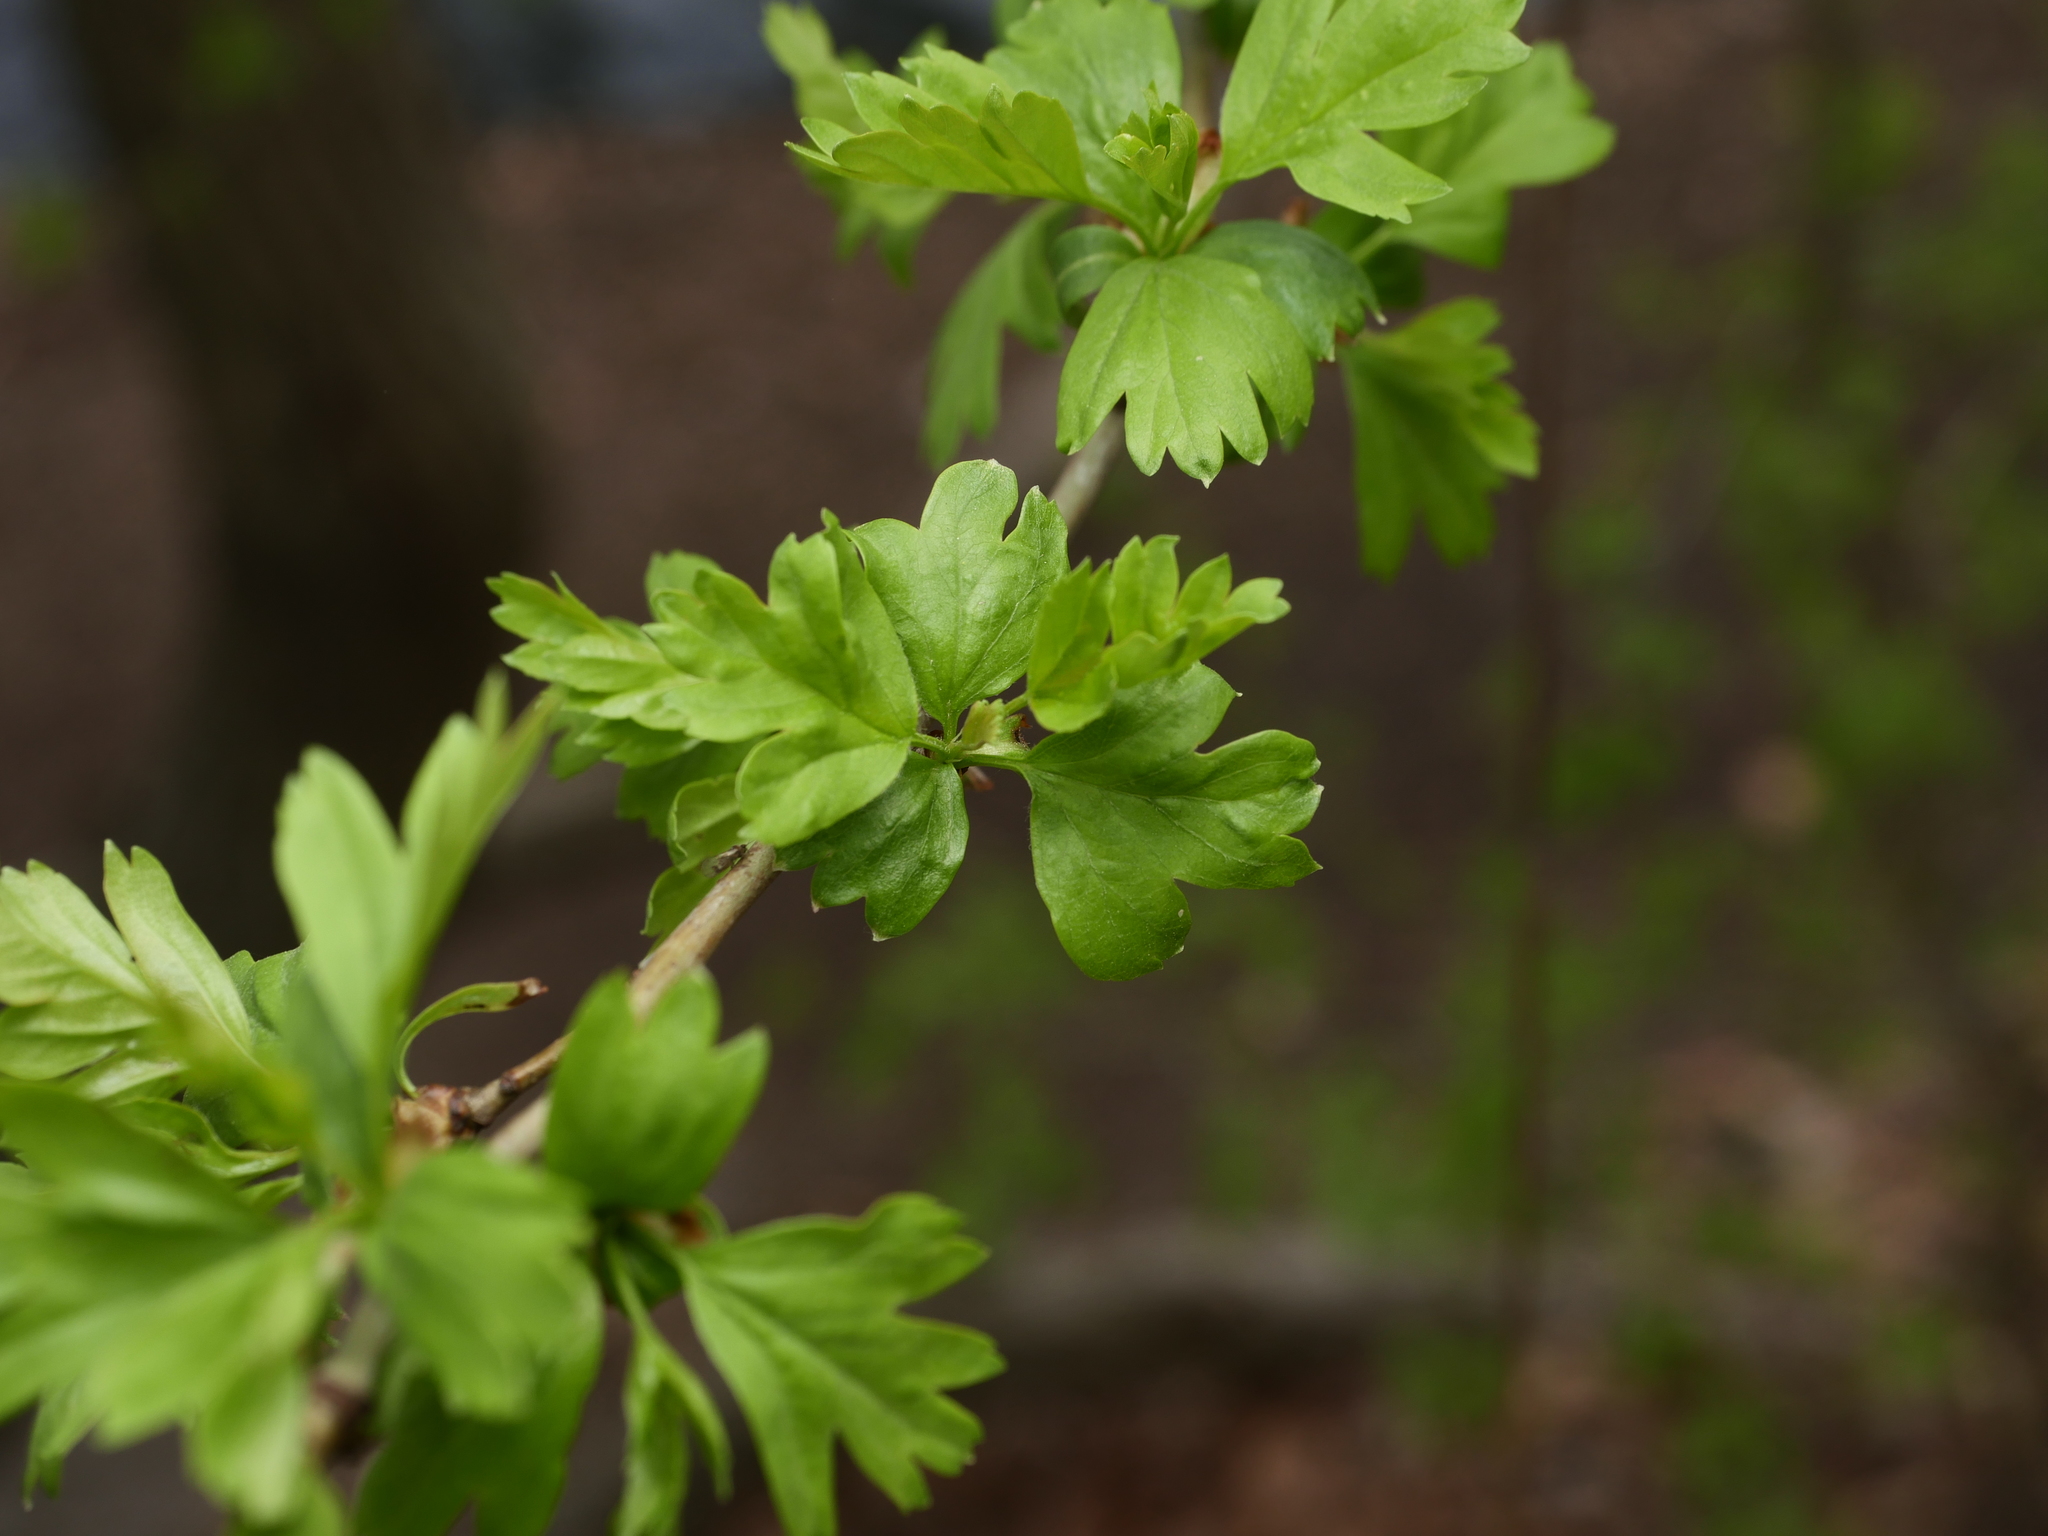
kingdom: Plantae
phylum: Tracheophyta
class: Magnoliopsida
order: Rosales
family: Rosaceae
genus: Crataegus
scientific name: Crataegus monogyna
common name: Hawthorn
